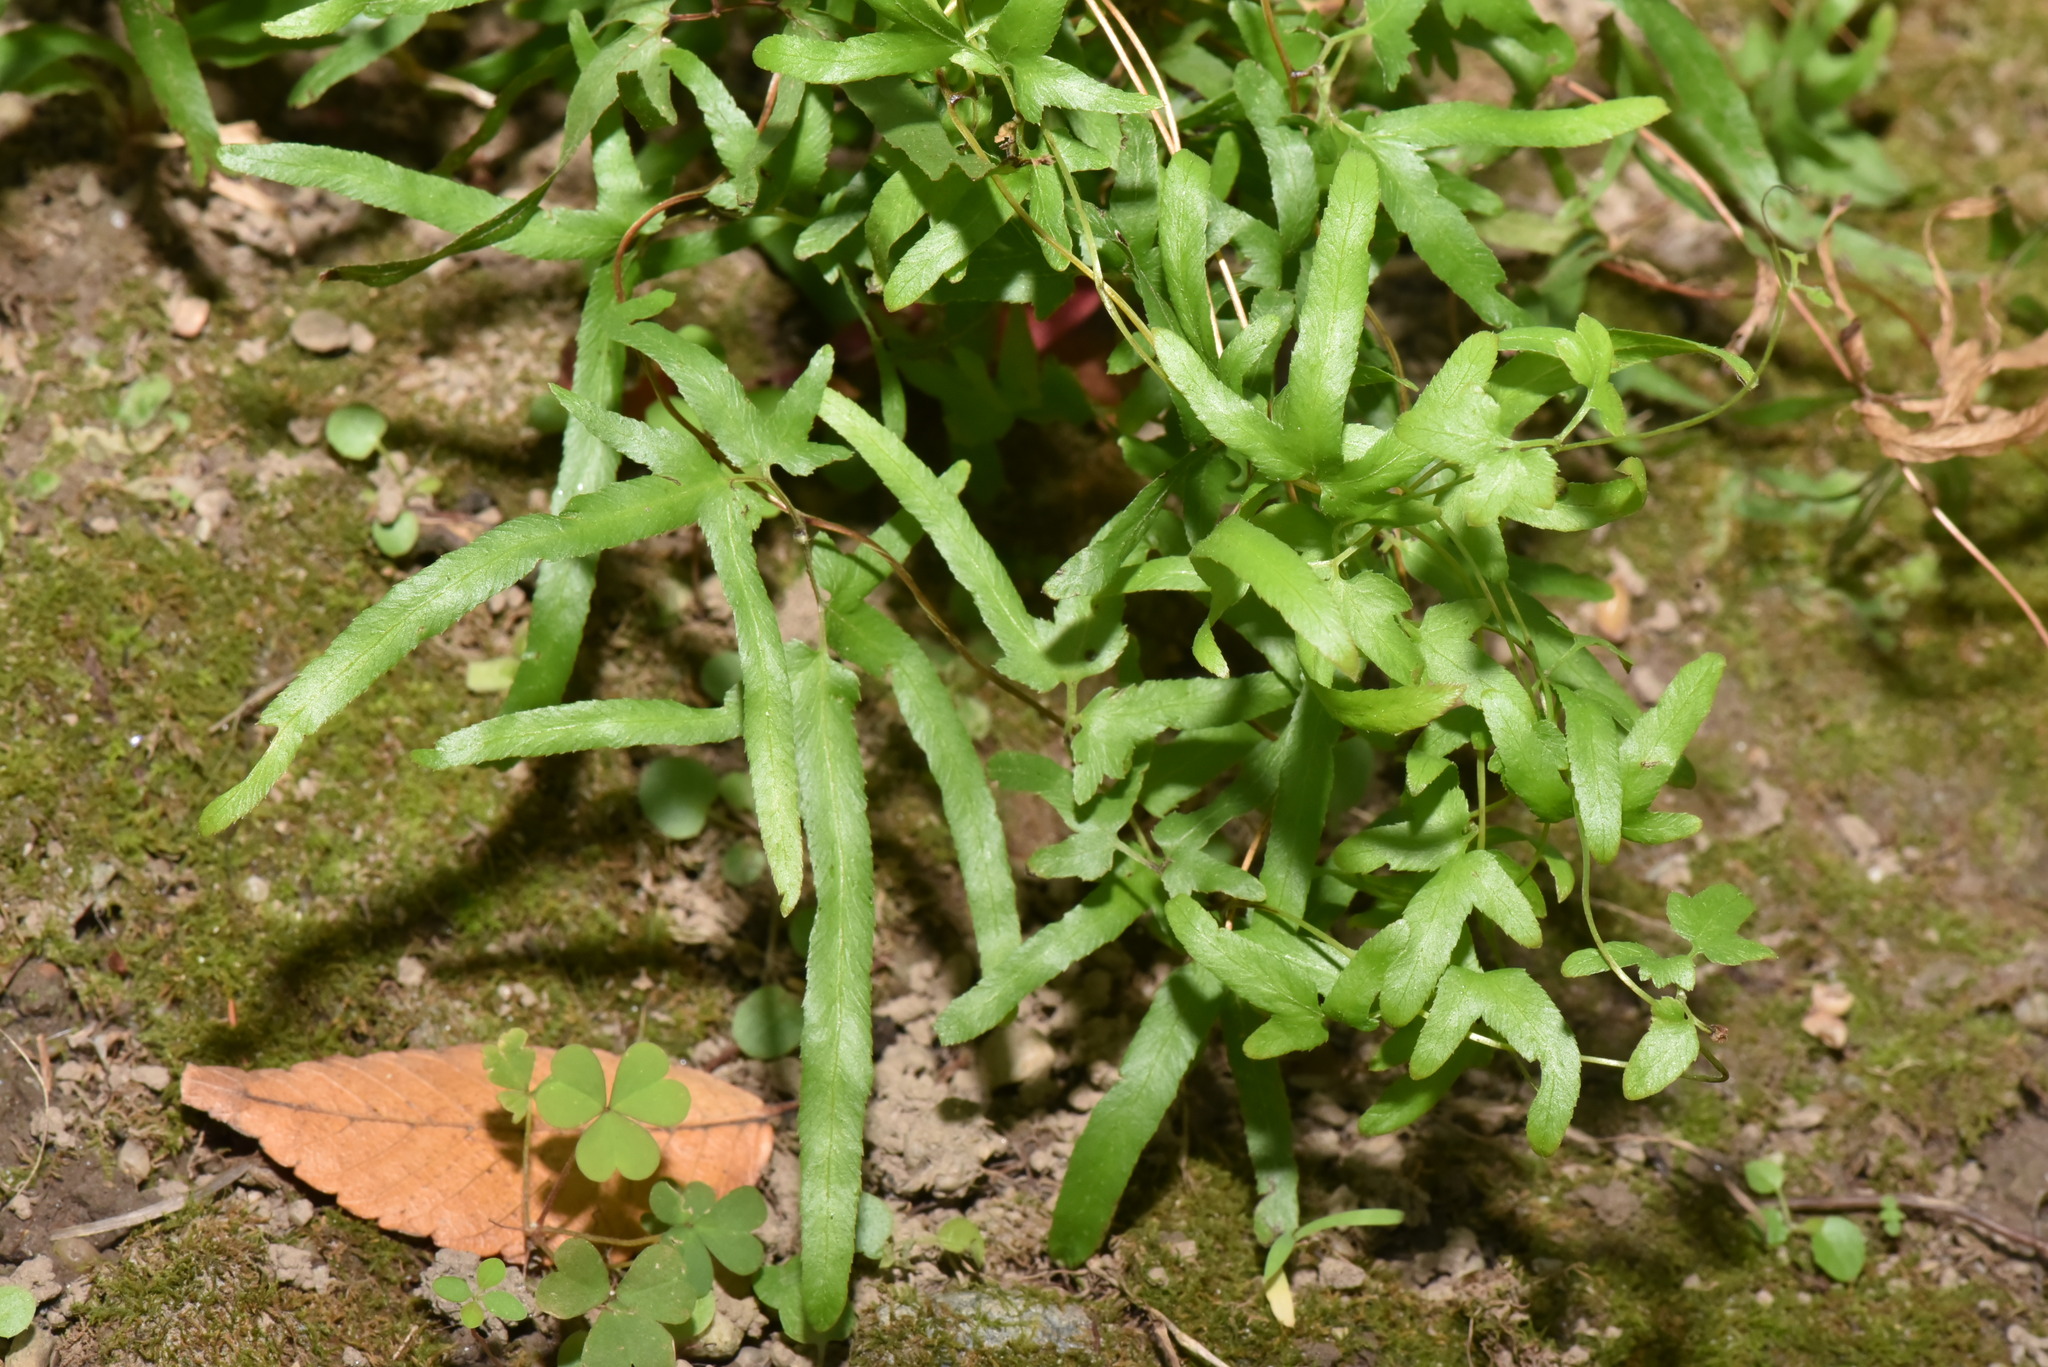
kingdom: Plantae
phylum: Tracheophyta
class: Polypodiopsida
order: Schizaeales
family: Lygodiaceae
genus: Lygodium
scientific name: Lygodium japonicum
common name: Japanese climbing fern
